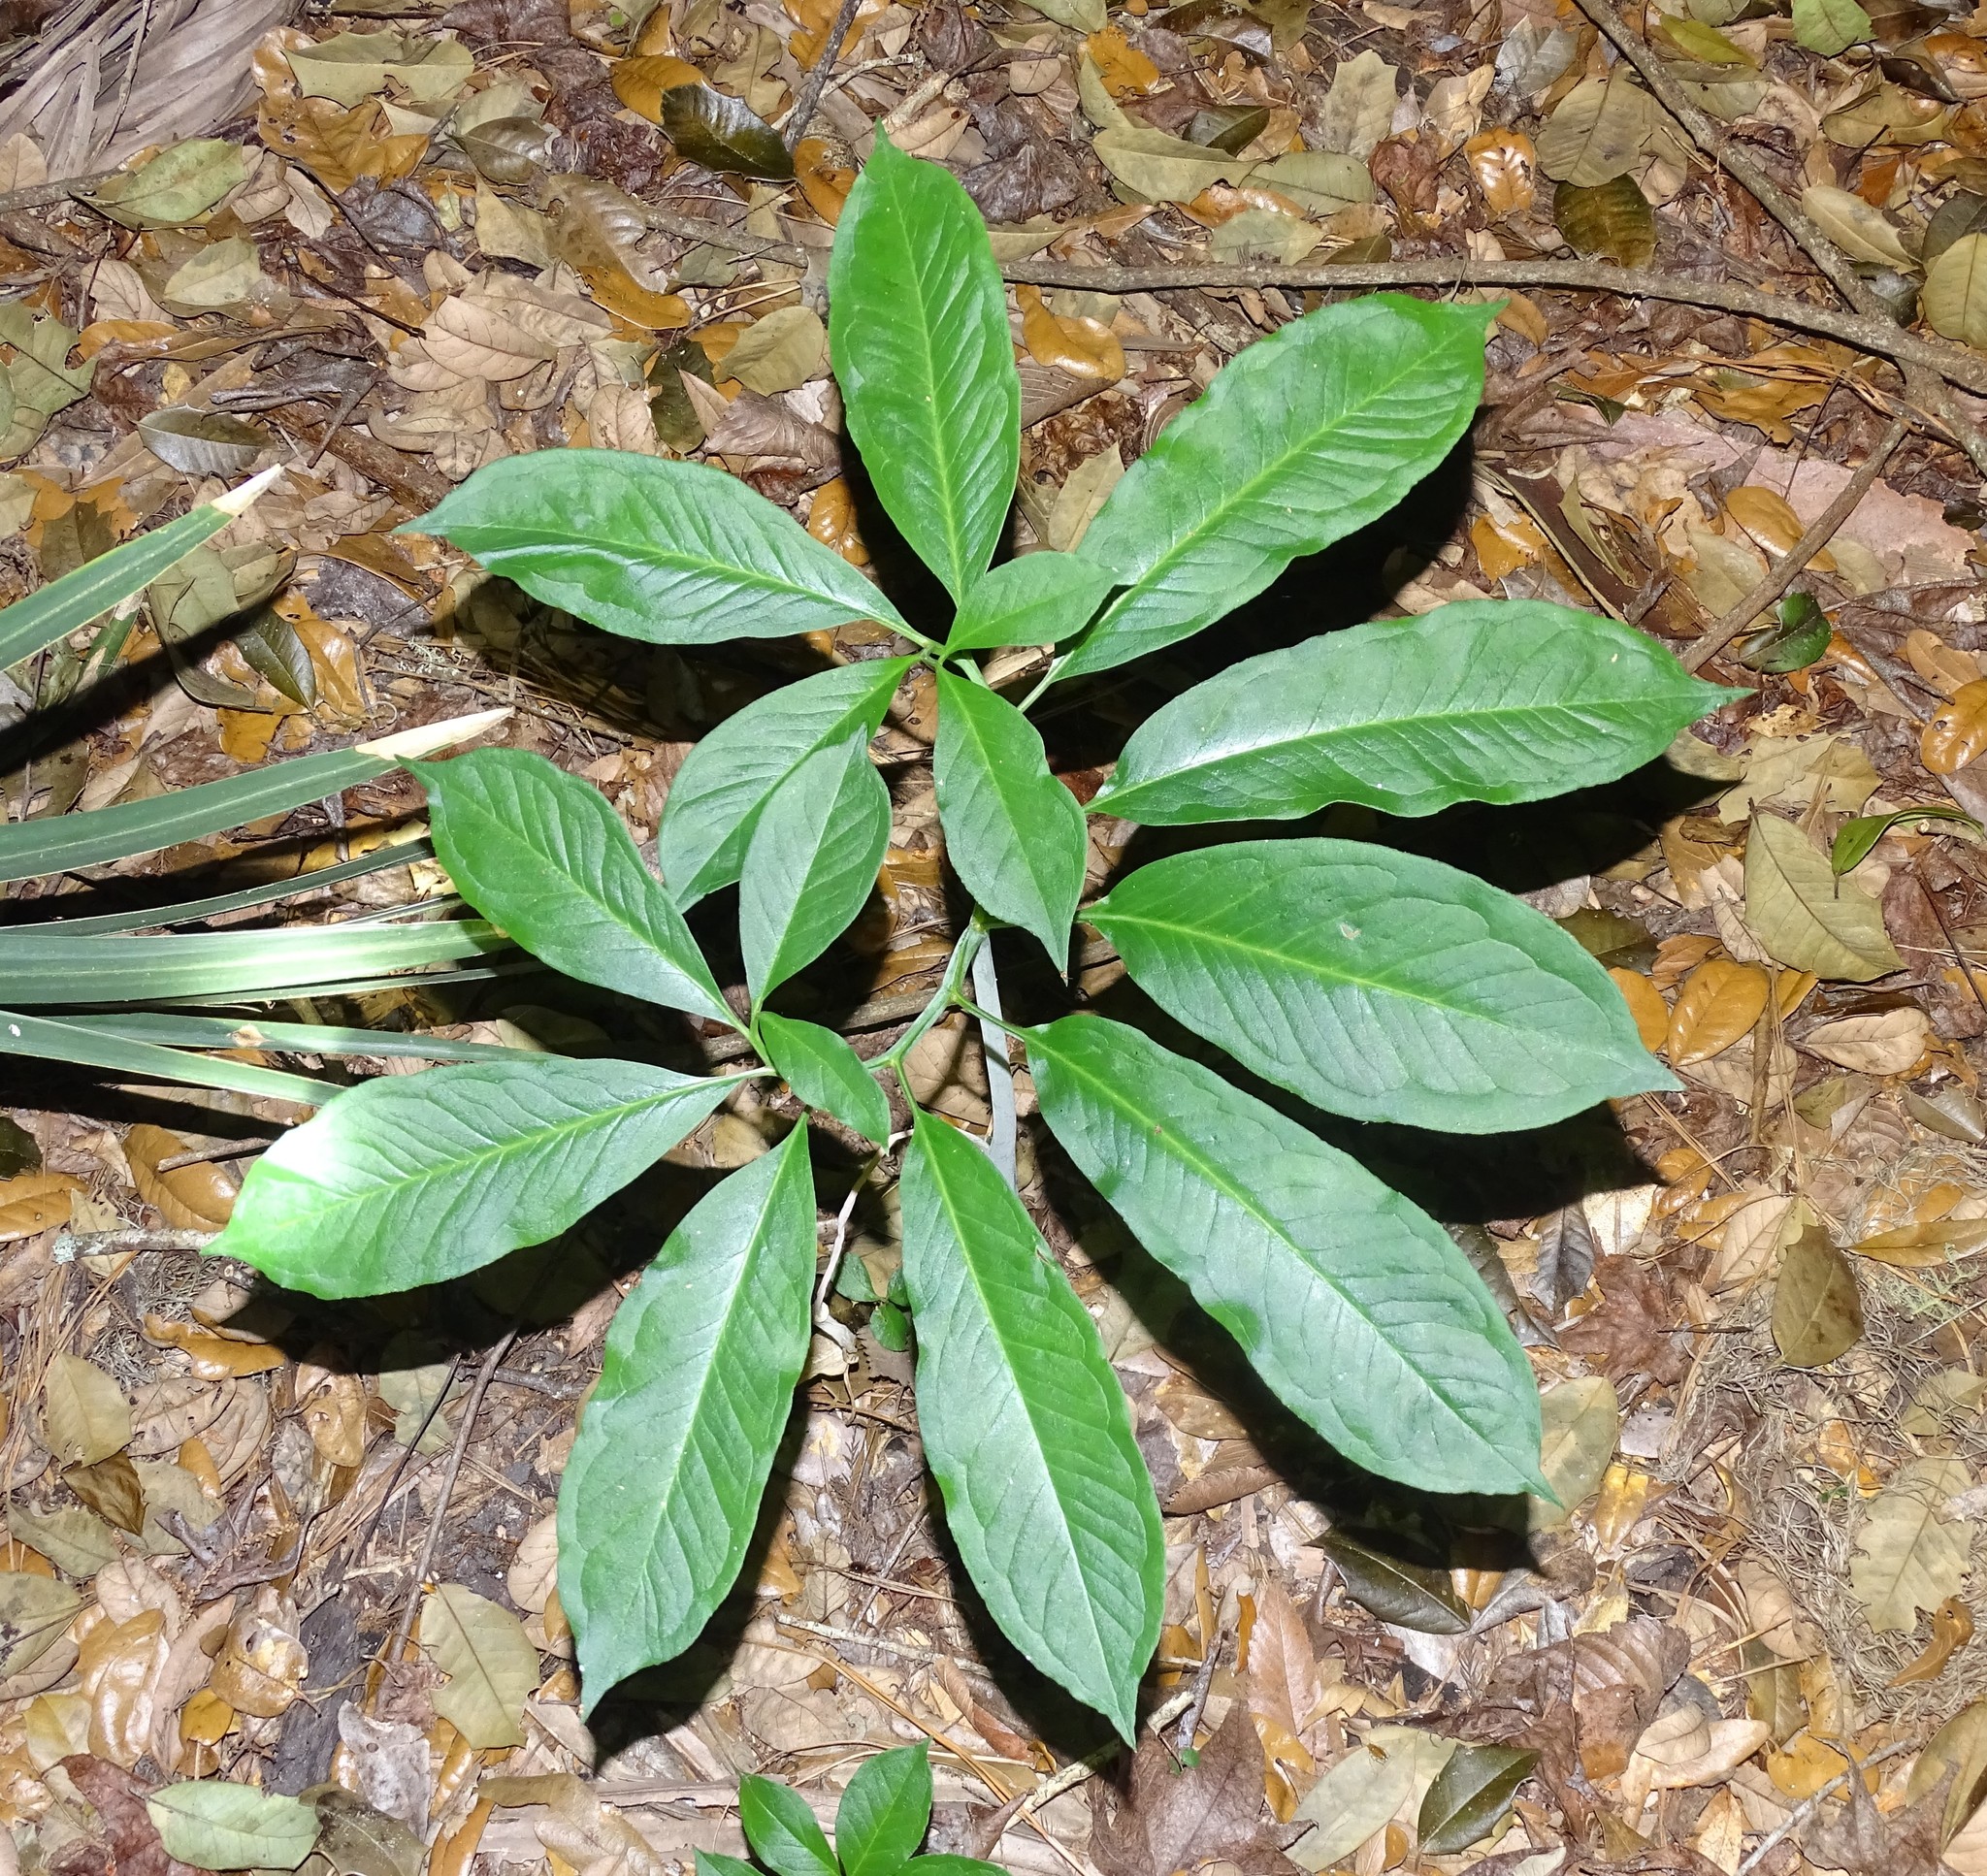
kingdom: Plantae
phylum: Tracheophyta
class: Liliopsida
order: Alismatales
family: Araceae
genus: Arisaema
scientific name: Arisaema dracontium
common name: Dragon-arum
